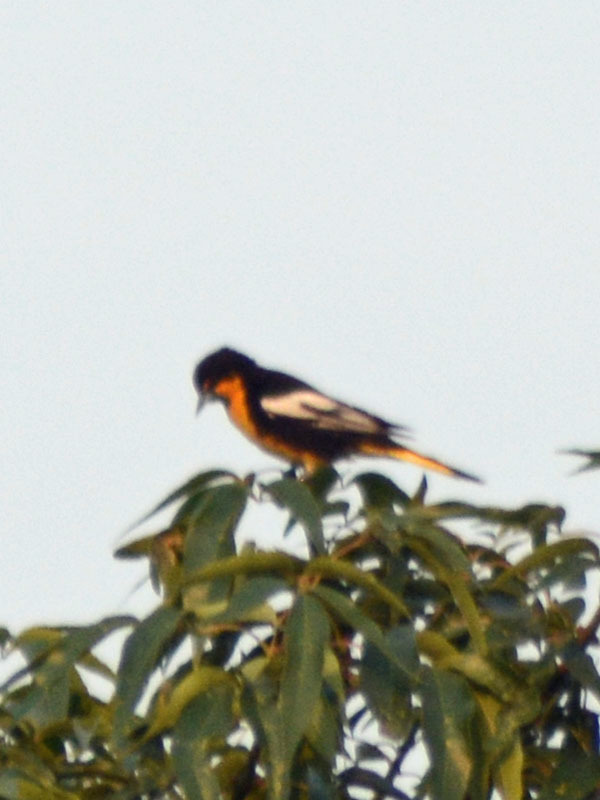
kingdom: Animalia
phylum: Chordata
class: Aves
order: Passeriformes
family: Icteridae
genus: Icterus
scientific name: Icterus abeillei
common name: Black-backed oriole
